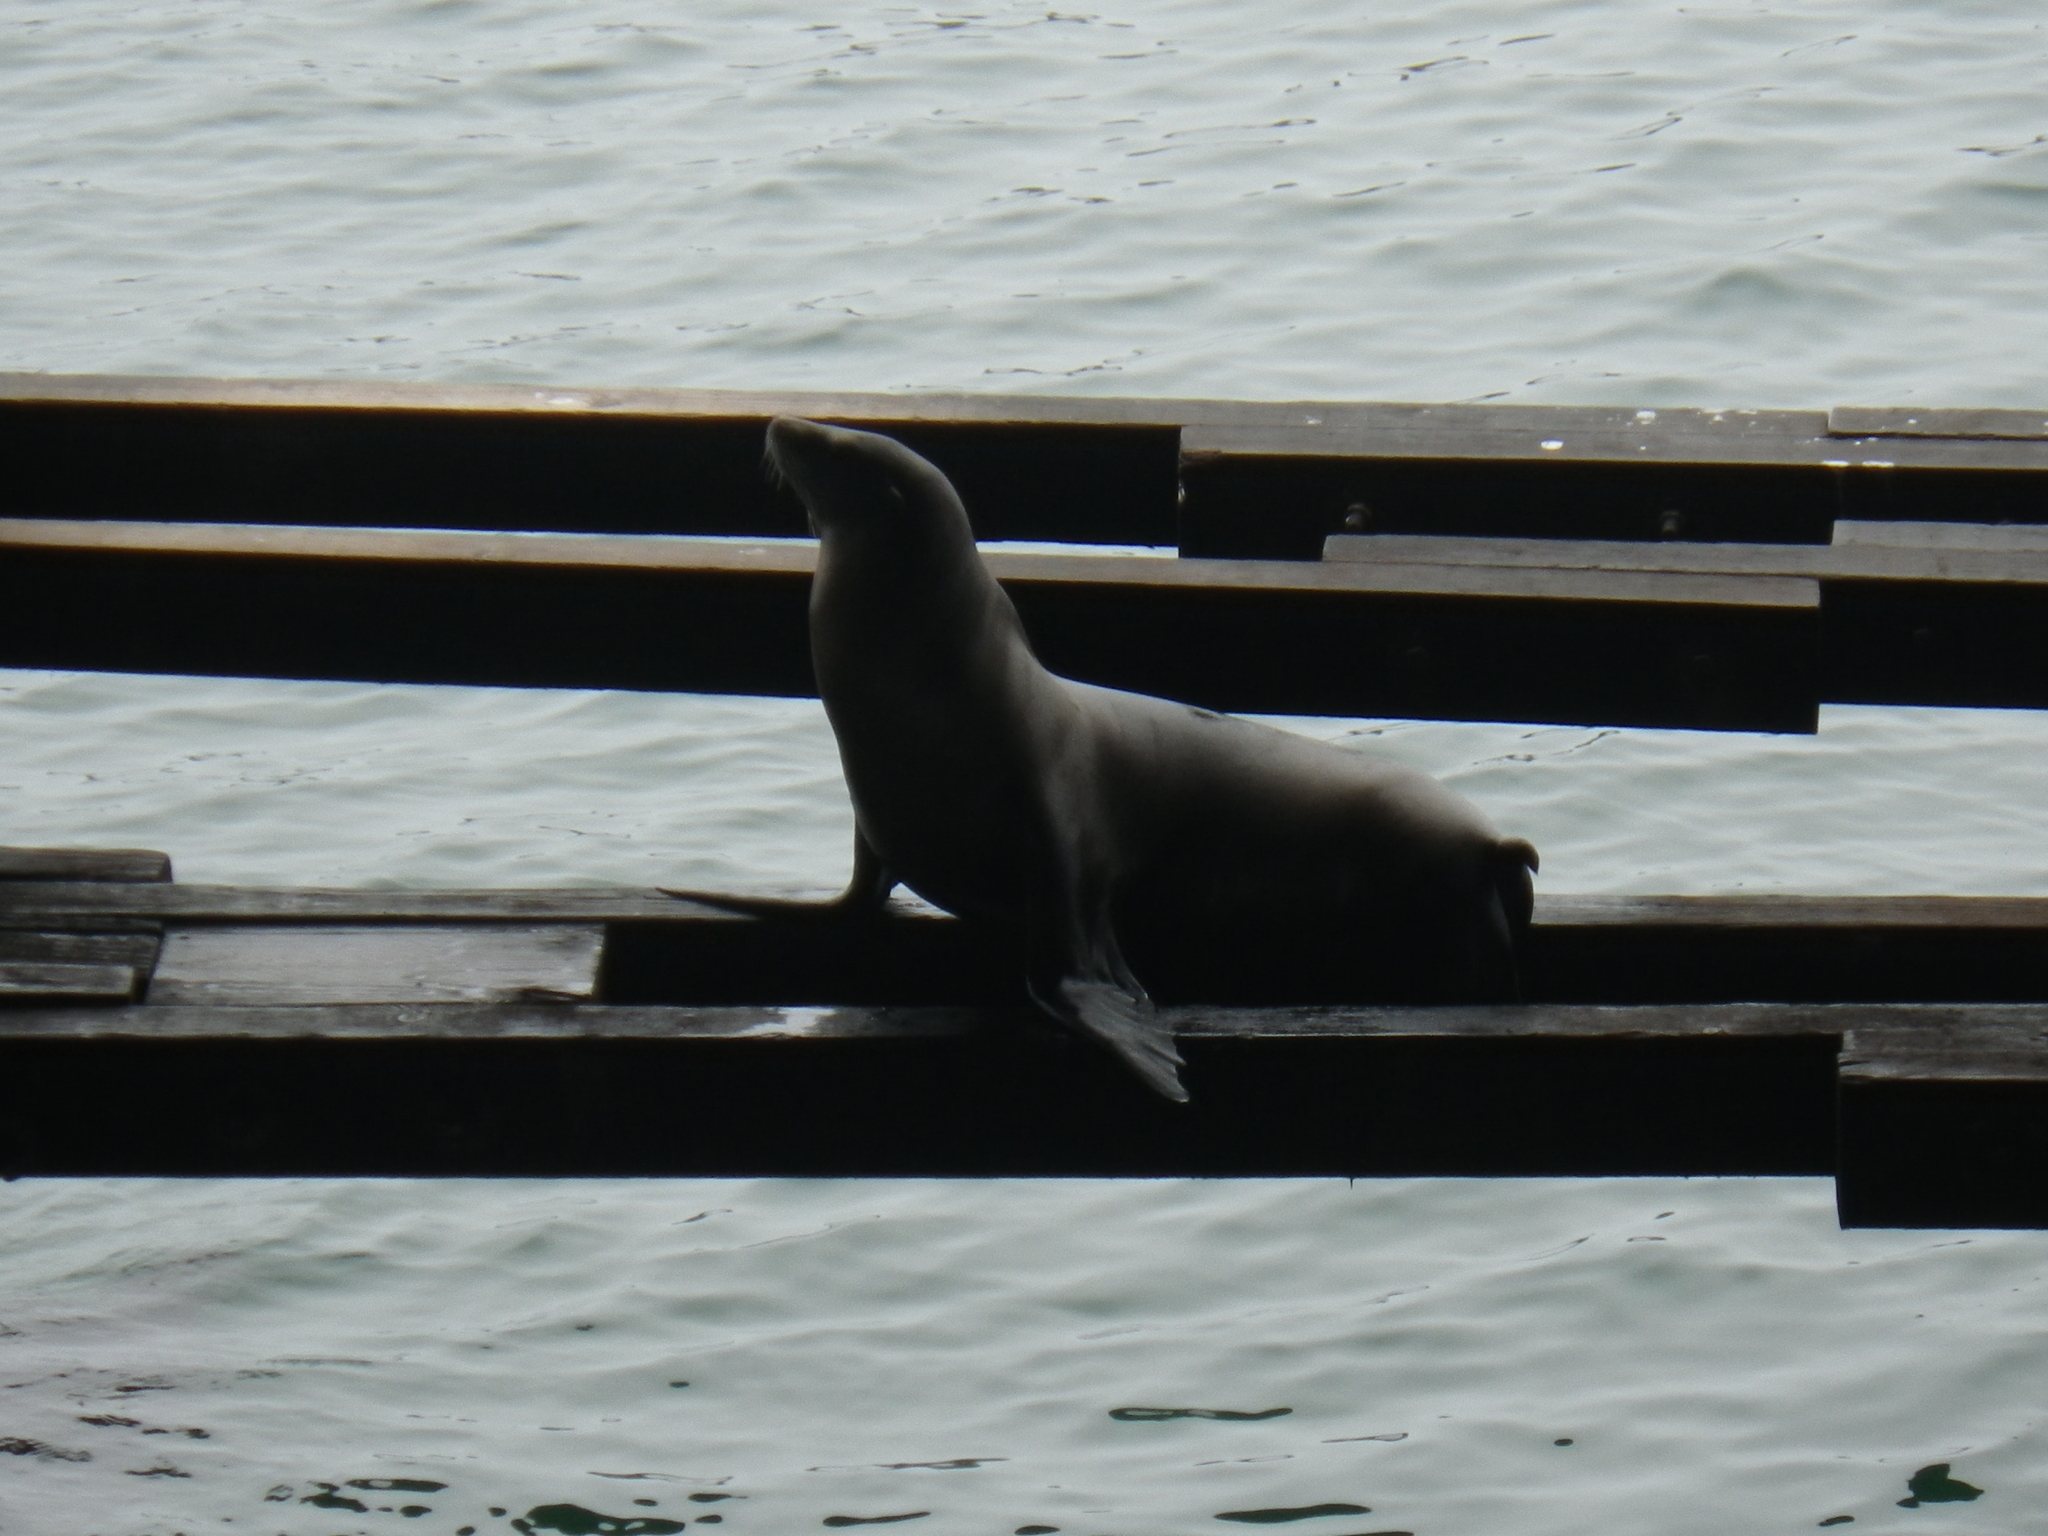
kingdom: Animalia
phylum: Chordata
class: Mammalia
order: Carnivora
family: Otariidae
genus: Zalophus
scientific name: Zalophus californianus
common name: California sea lion
